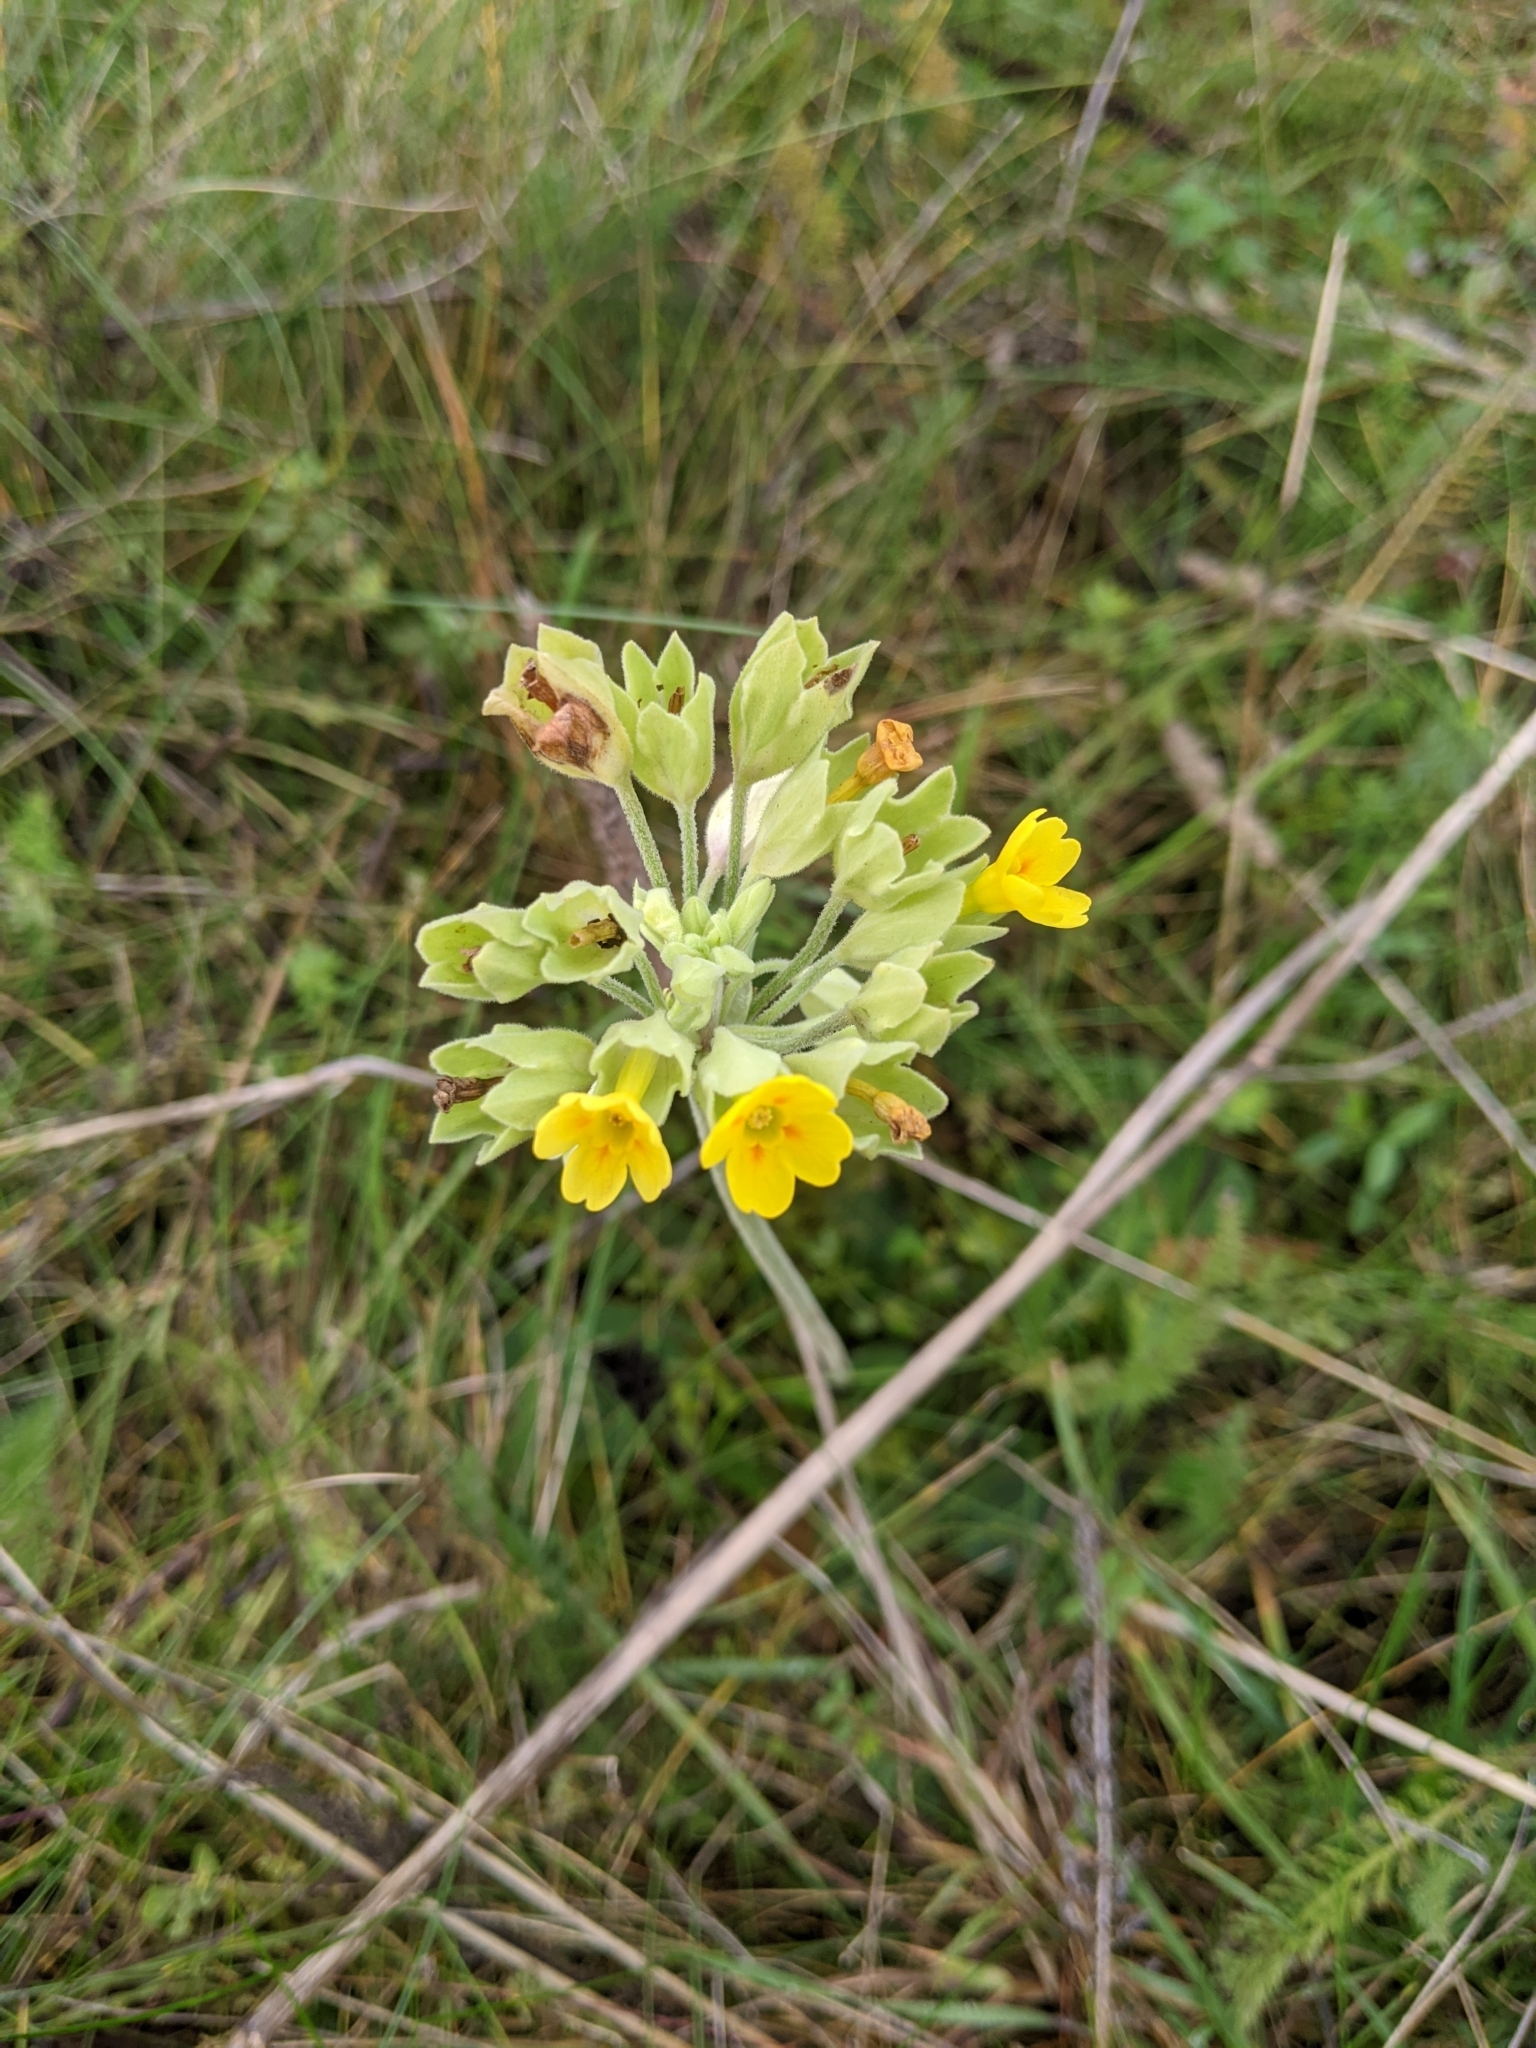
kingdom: Plantae
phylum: Tracheophyta
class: Magnoliopsida
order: Ericales
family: Primulaceae
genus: Primula
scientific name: Primula veris
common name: Cowslip
